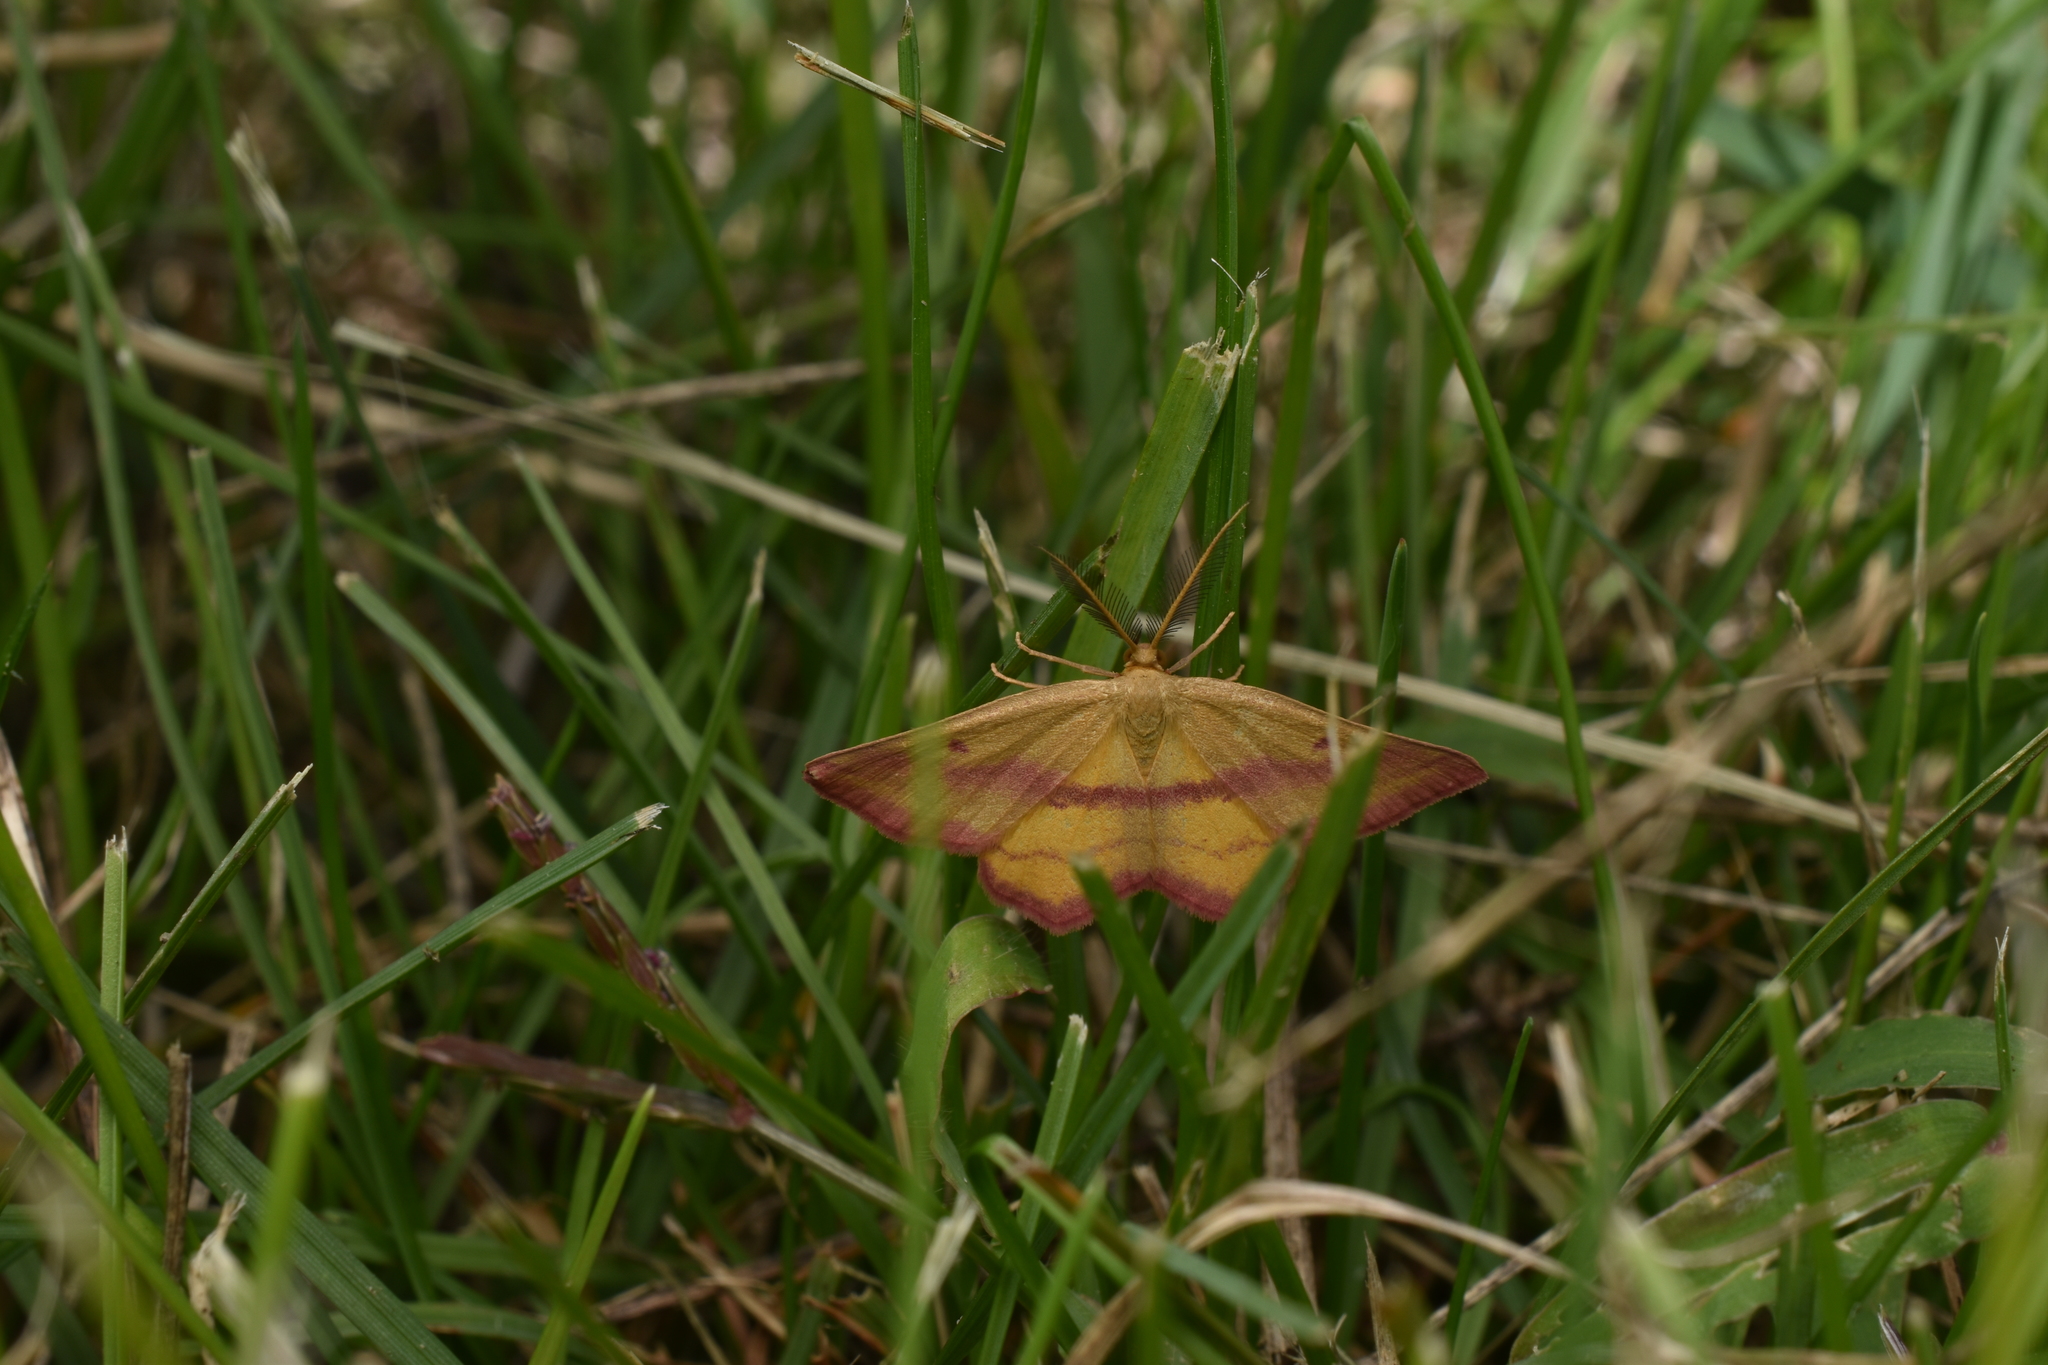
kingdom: Animalia
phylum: Arthropoda
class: Insecta
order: Lepidoptera
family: Geometridae
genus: Haematopis
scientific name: Haematopis grataria
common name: Chickweed geometer
